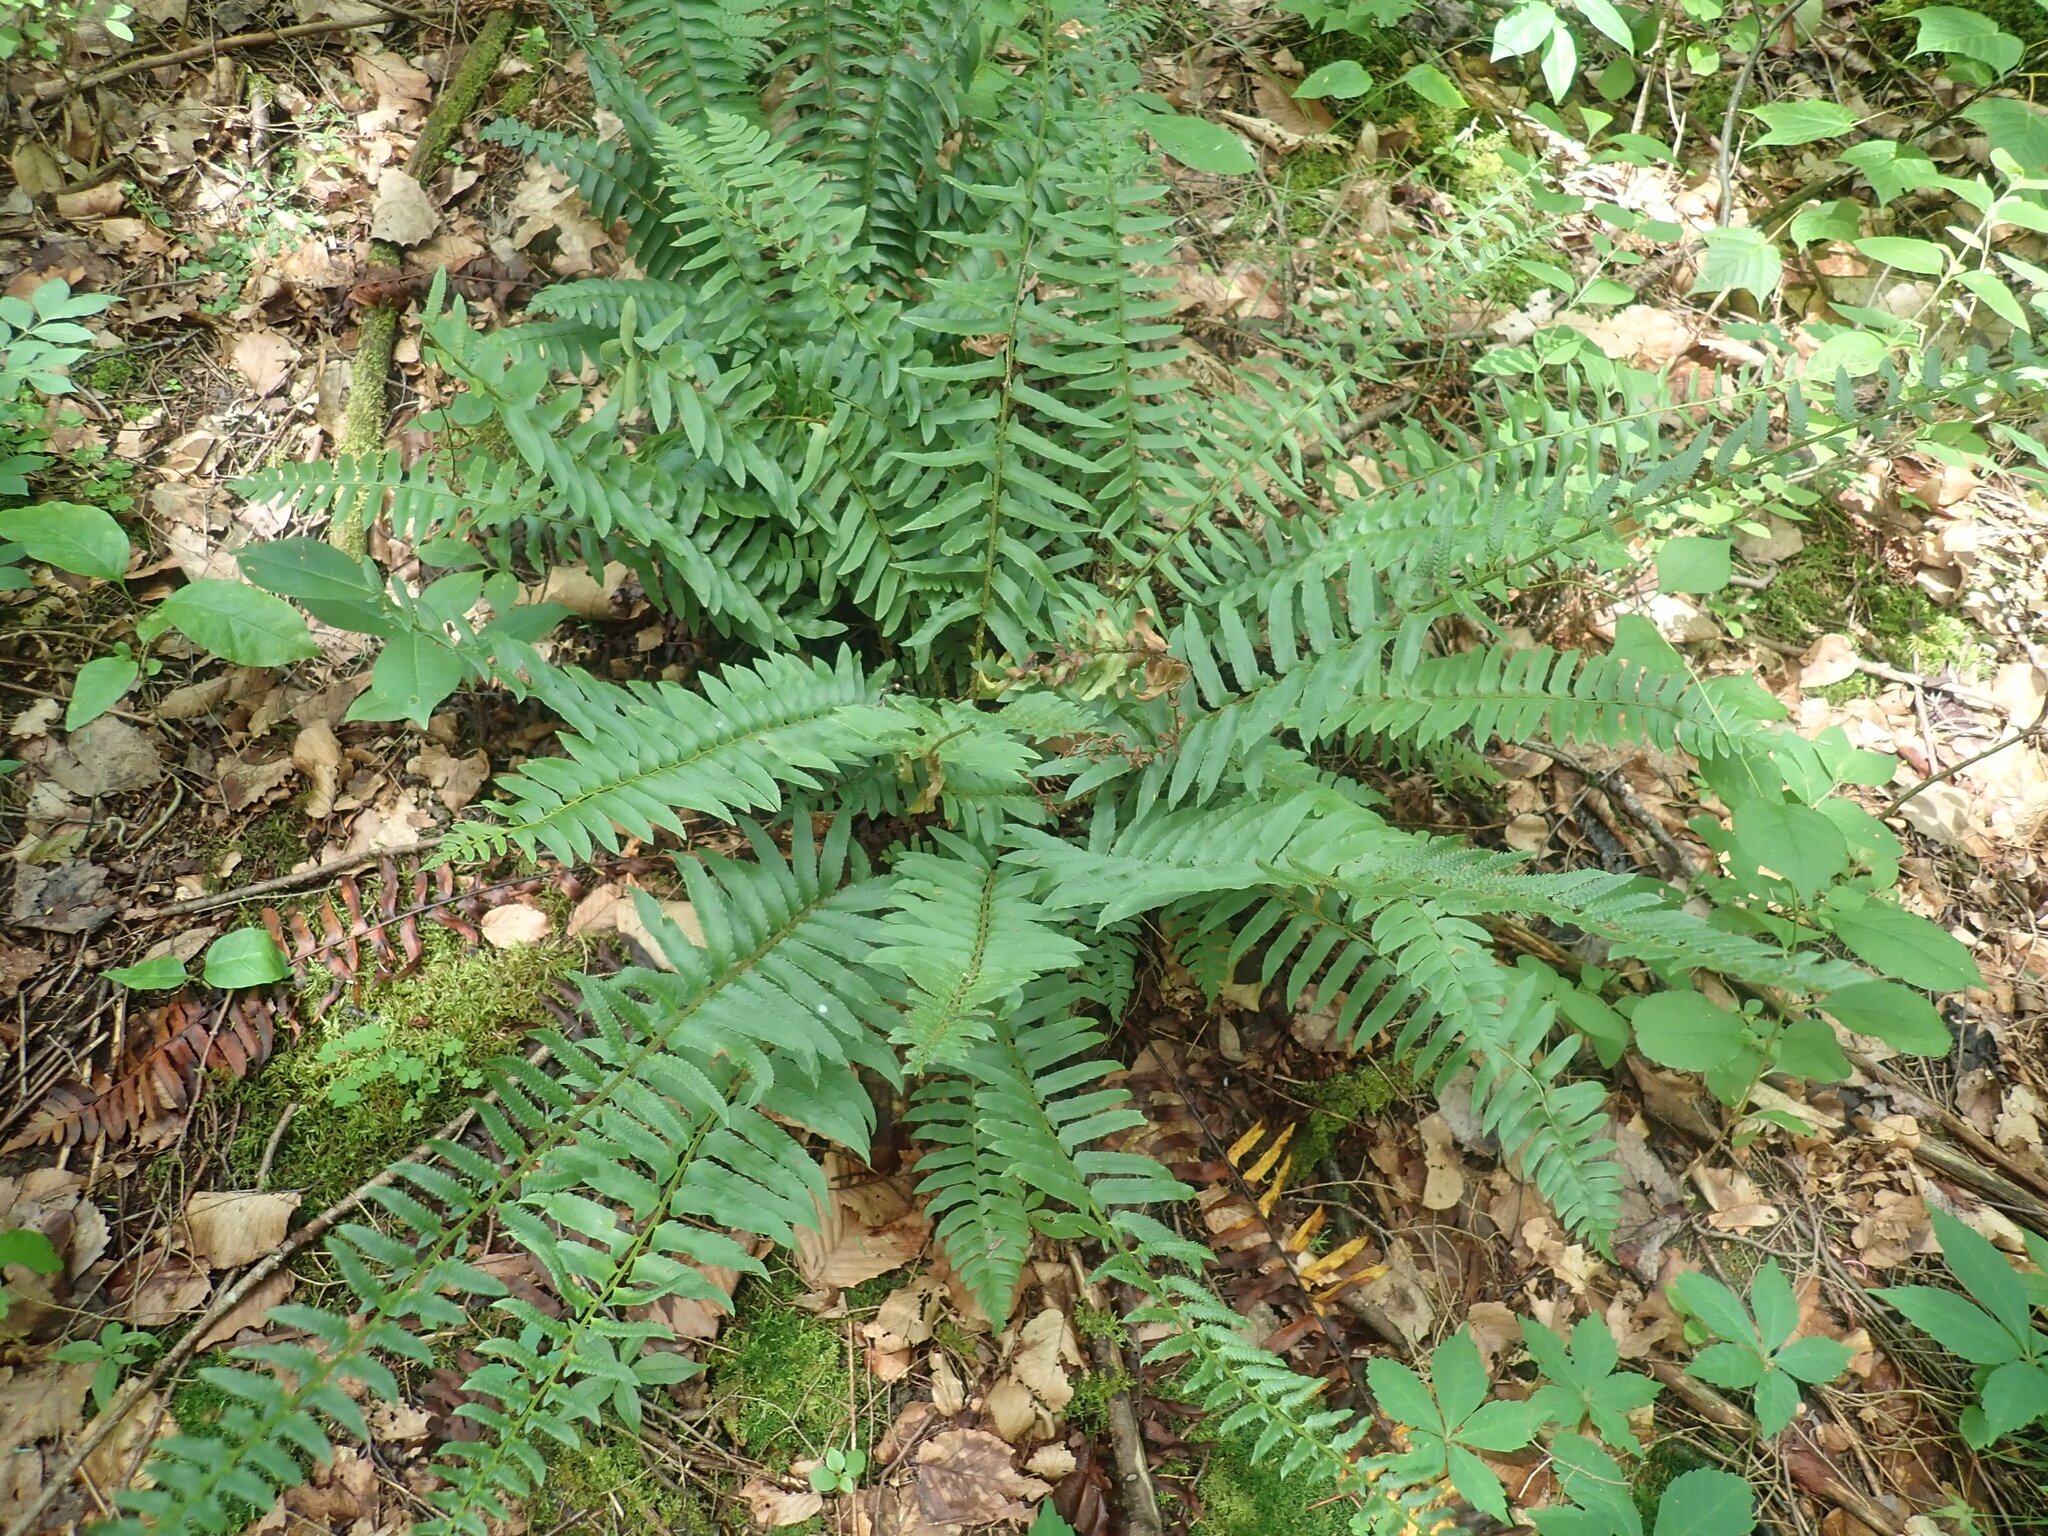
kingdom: Plantae
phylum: Tracheophyta
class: Polypodiopsida
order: Polypodiales
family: Dryopteridaceae
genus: Polystichum
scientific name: Polystichum acrostichoides
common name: Christmas fern
